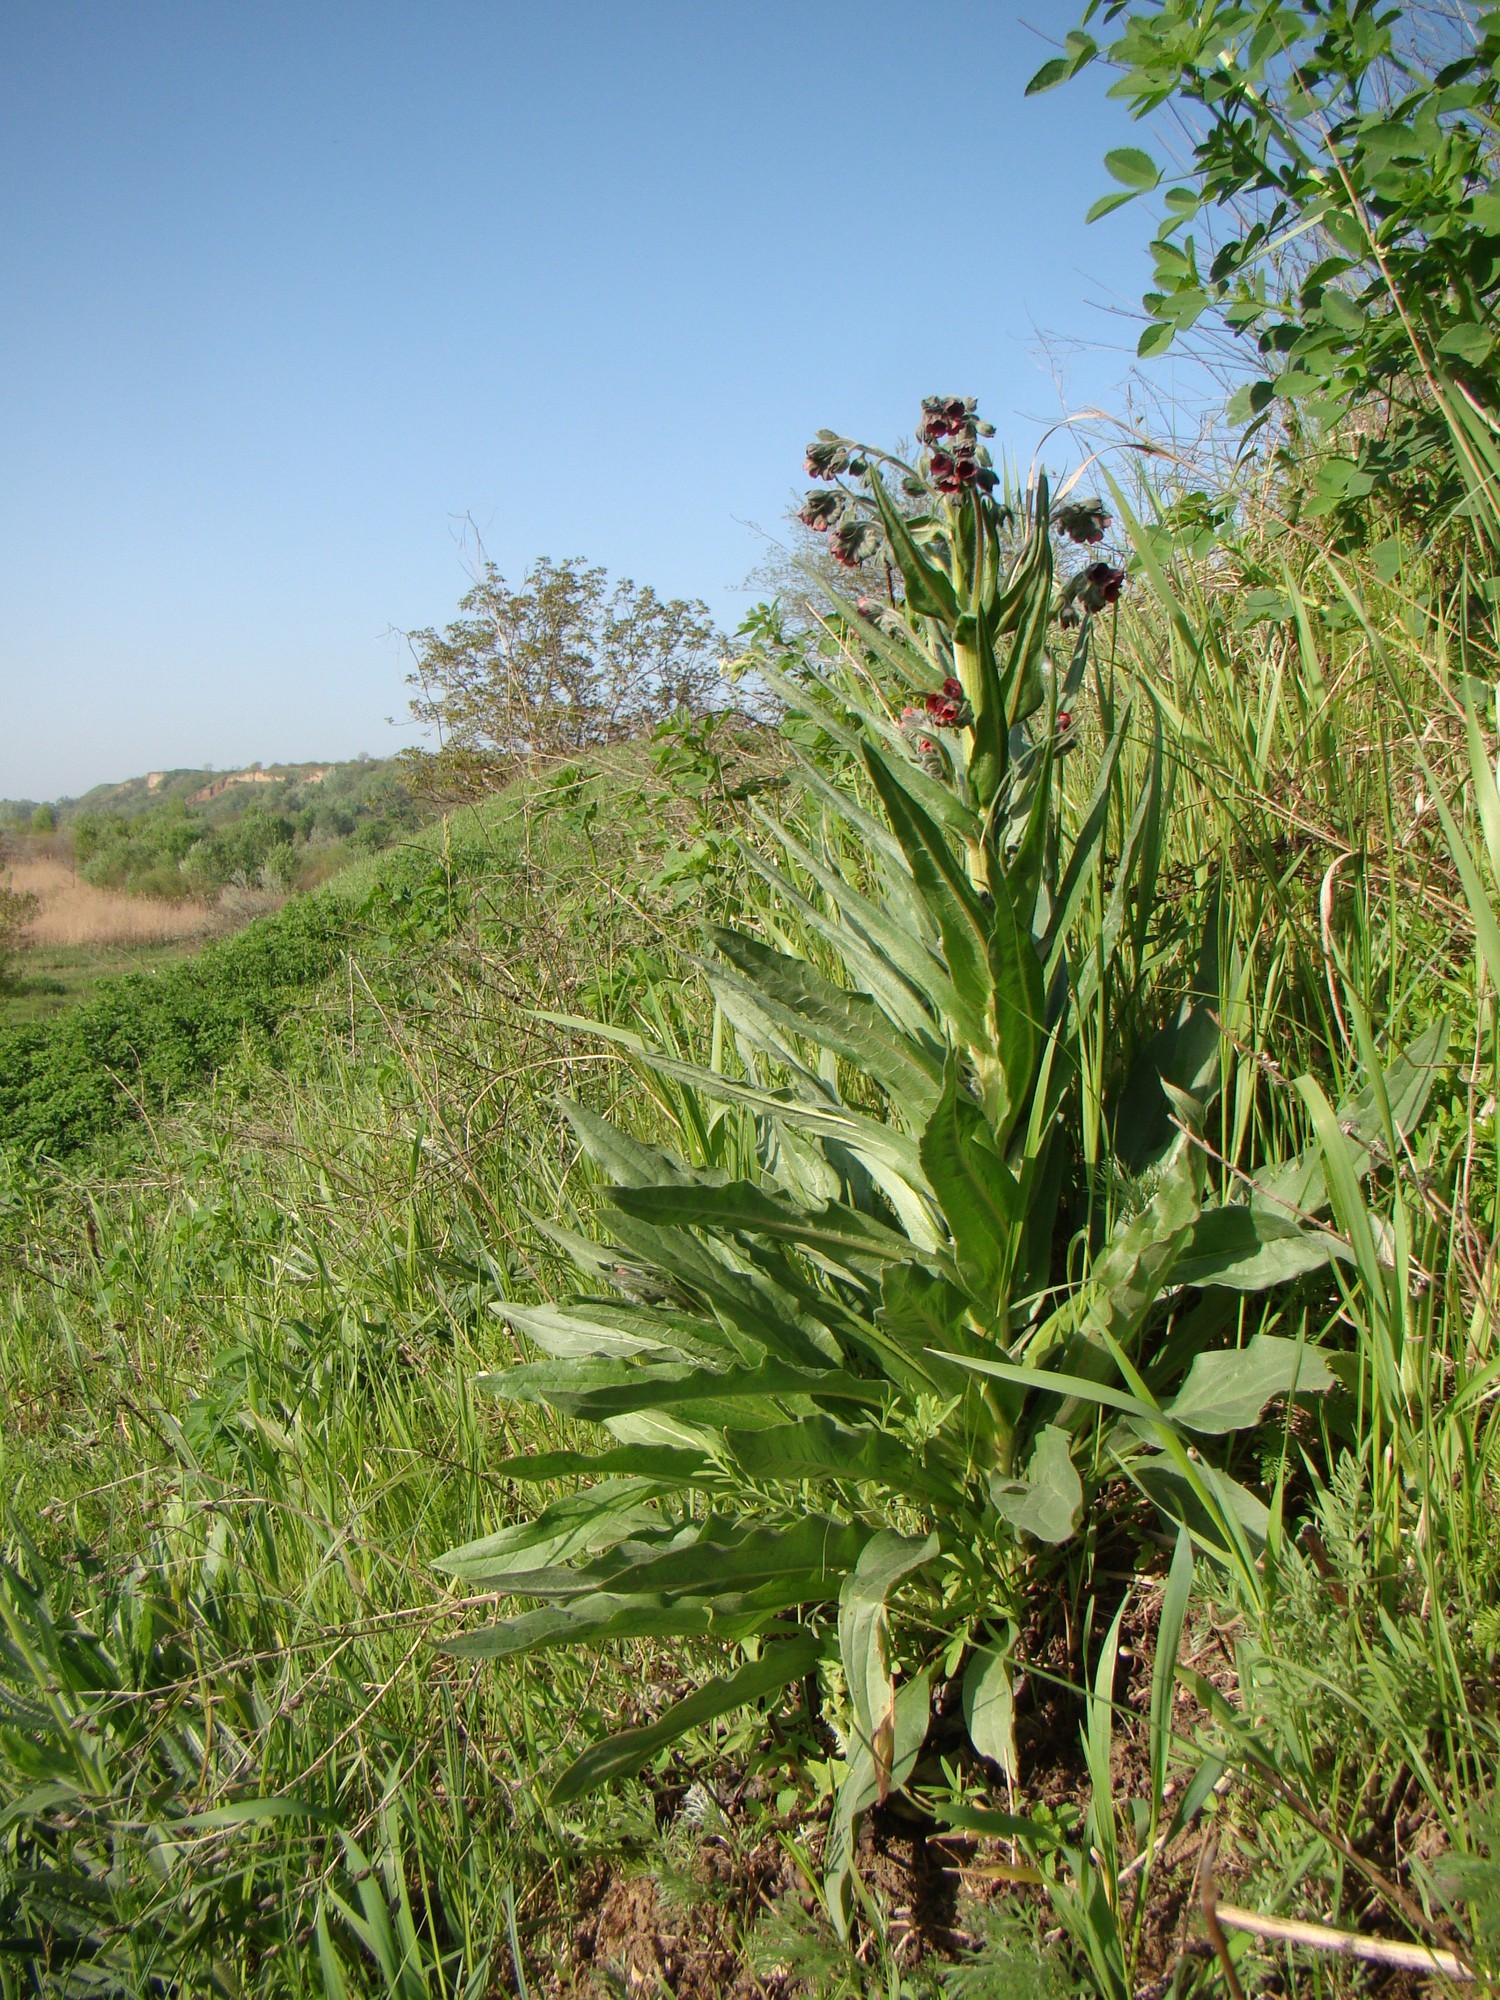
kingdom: Plantae
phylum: Tracheophyta
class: Magnoliopsida
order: Boraginales
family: Boraginaceae
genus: Cynoglossum
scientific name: Cynoglossum officinale
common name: Hound's-tongue
